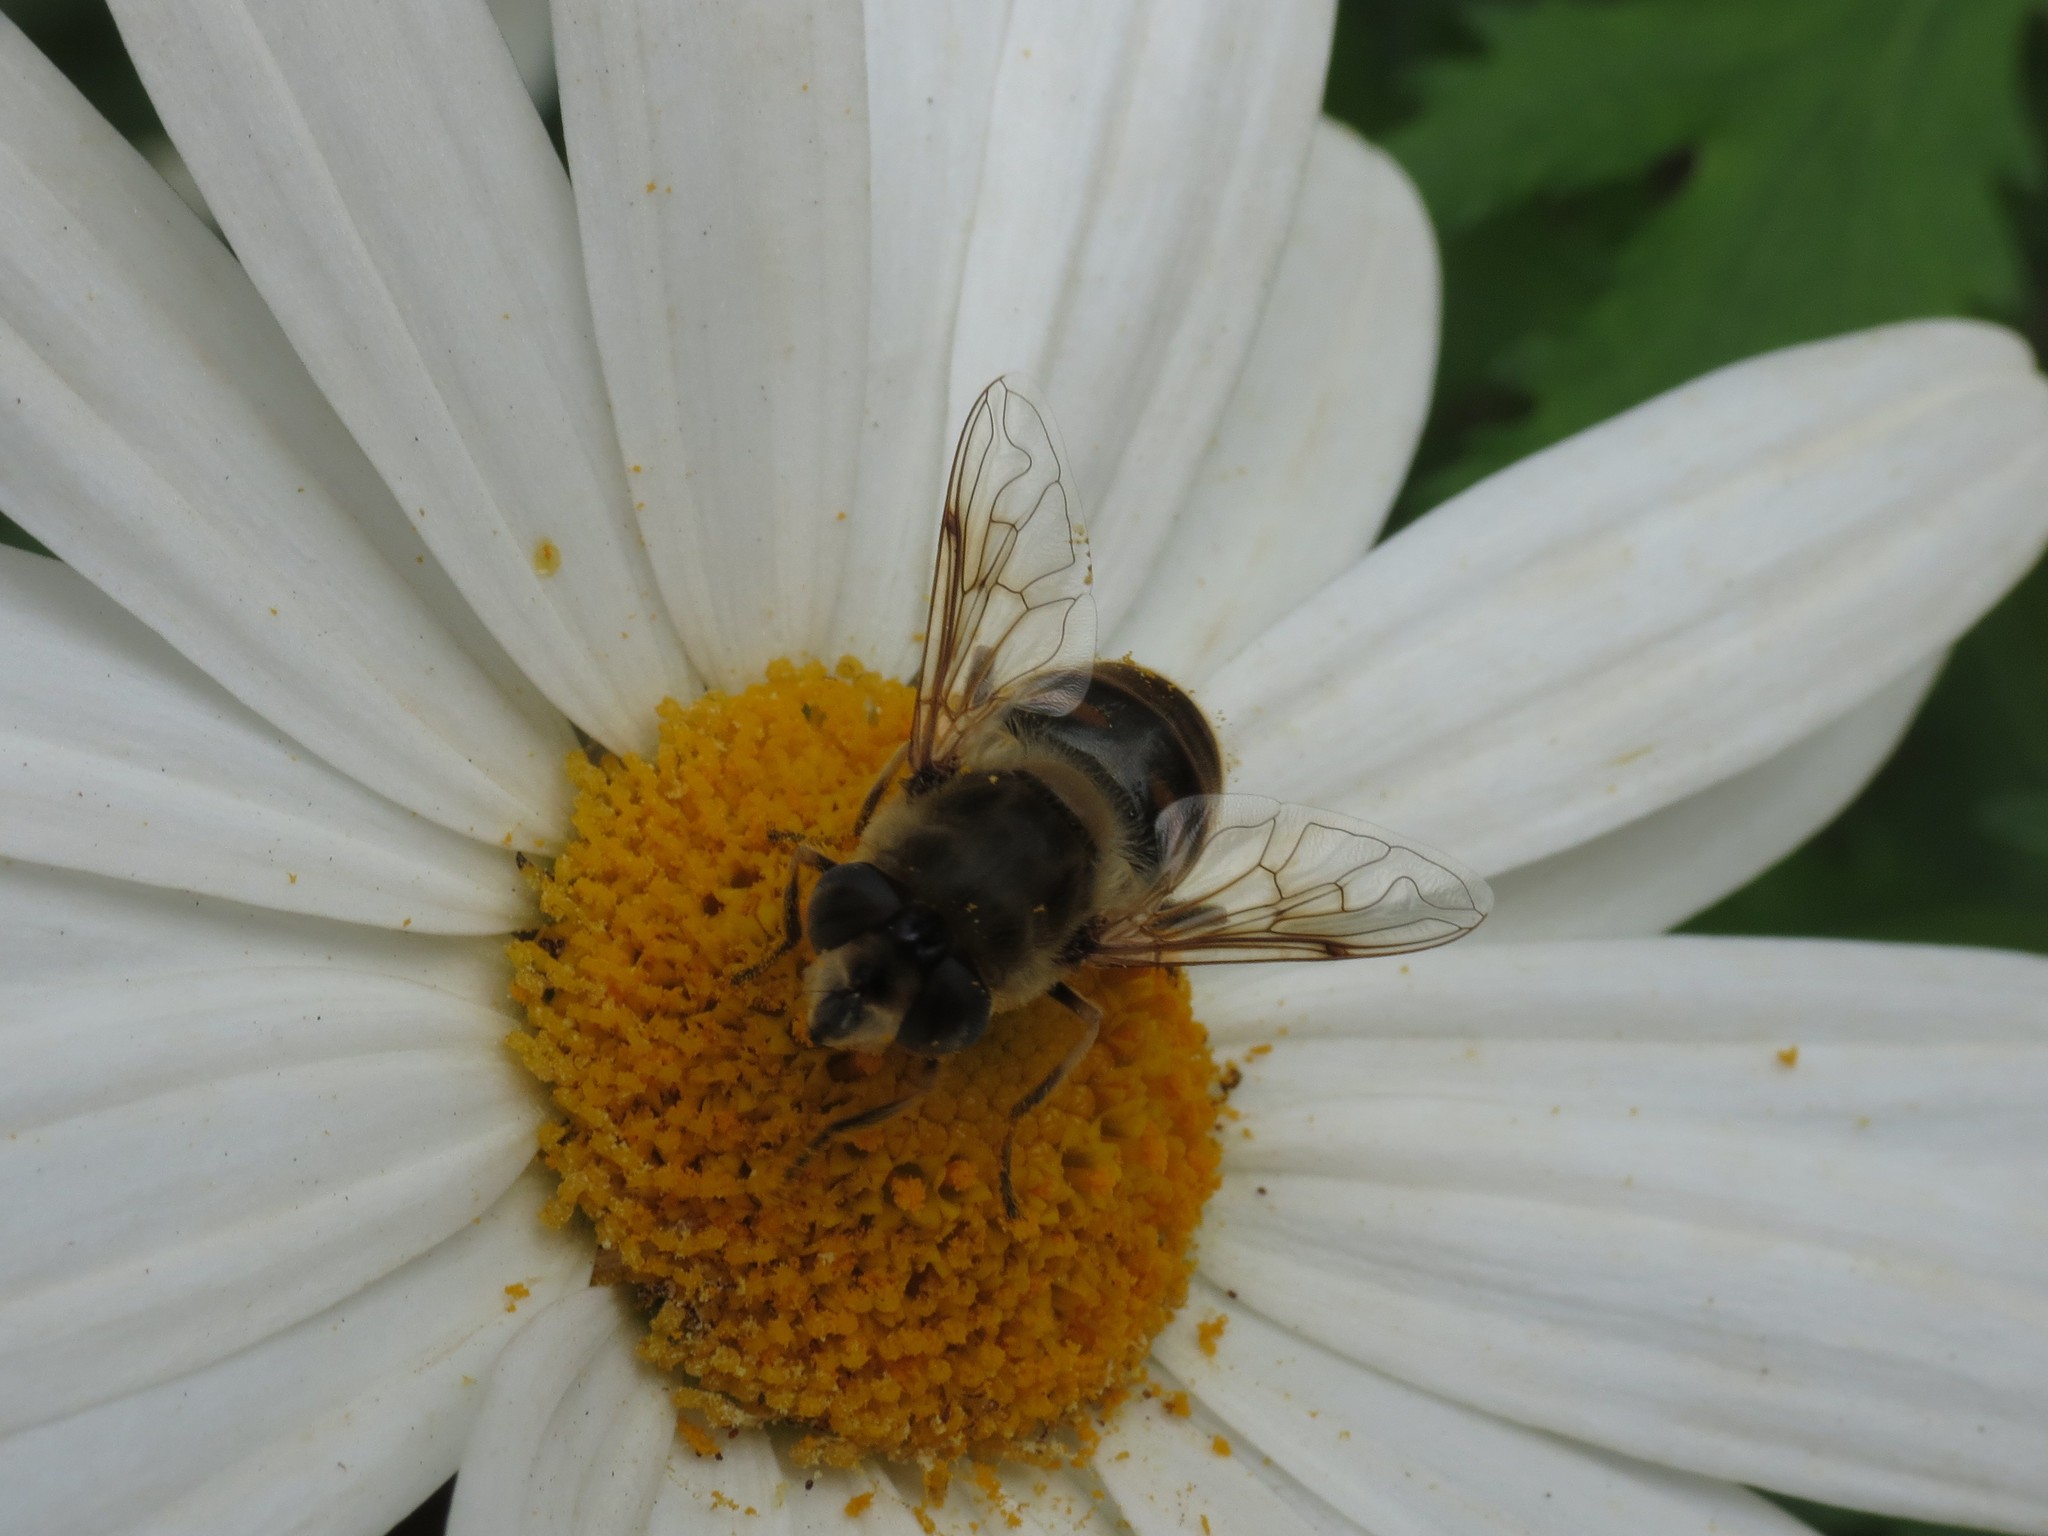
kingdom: Animalia
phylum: Arthropoda
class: Insecta
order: Diptera
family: Syrphidae
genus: Eristalis
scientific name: Eristalis tenax
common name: Drone fly
